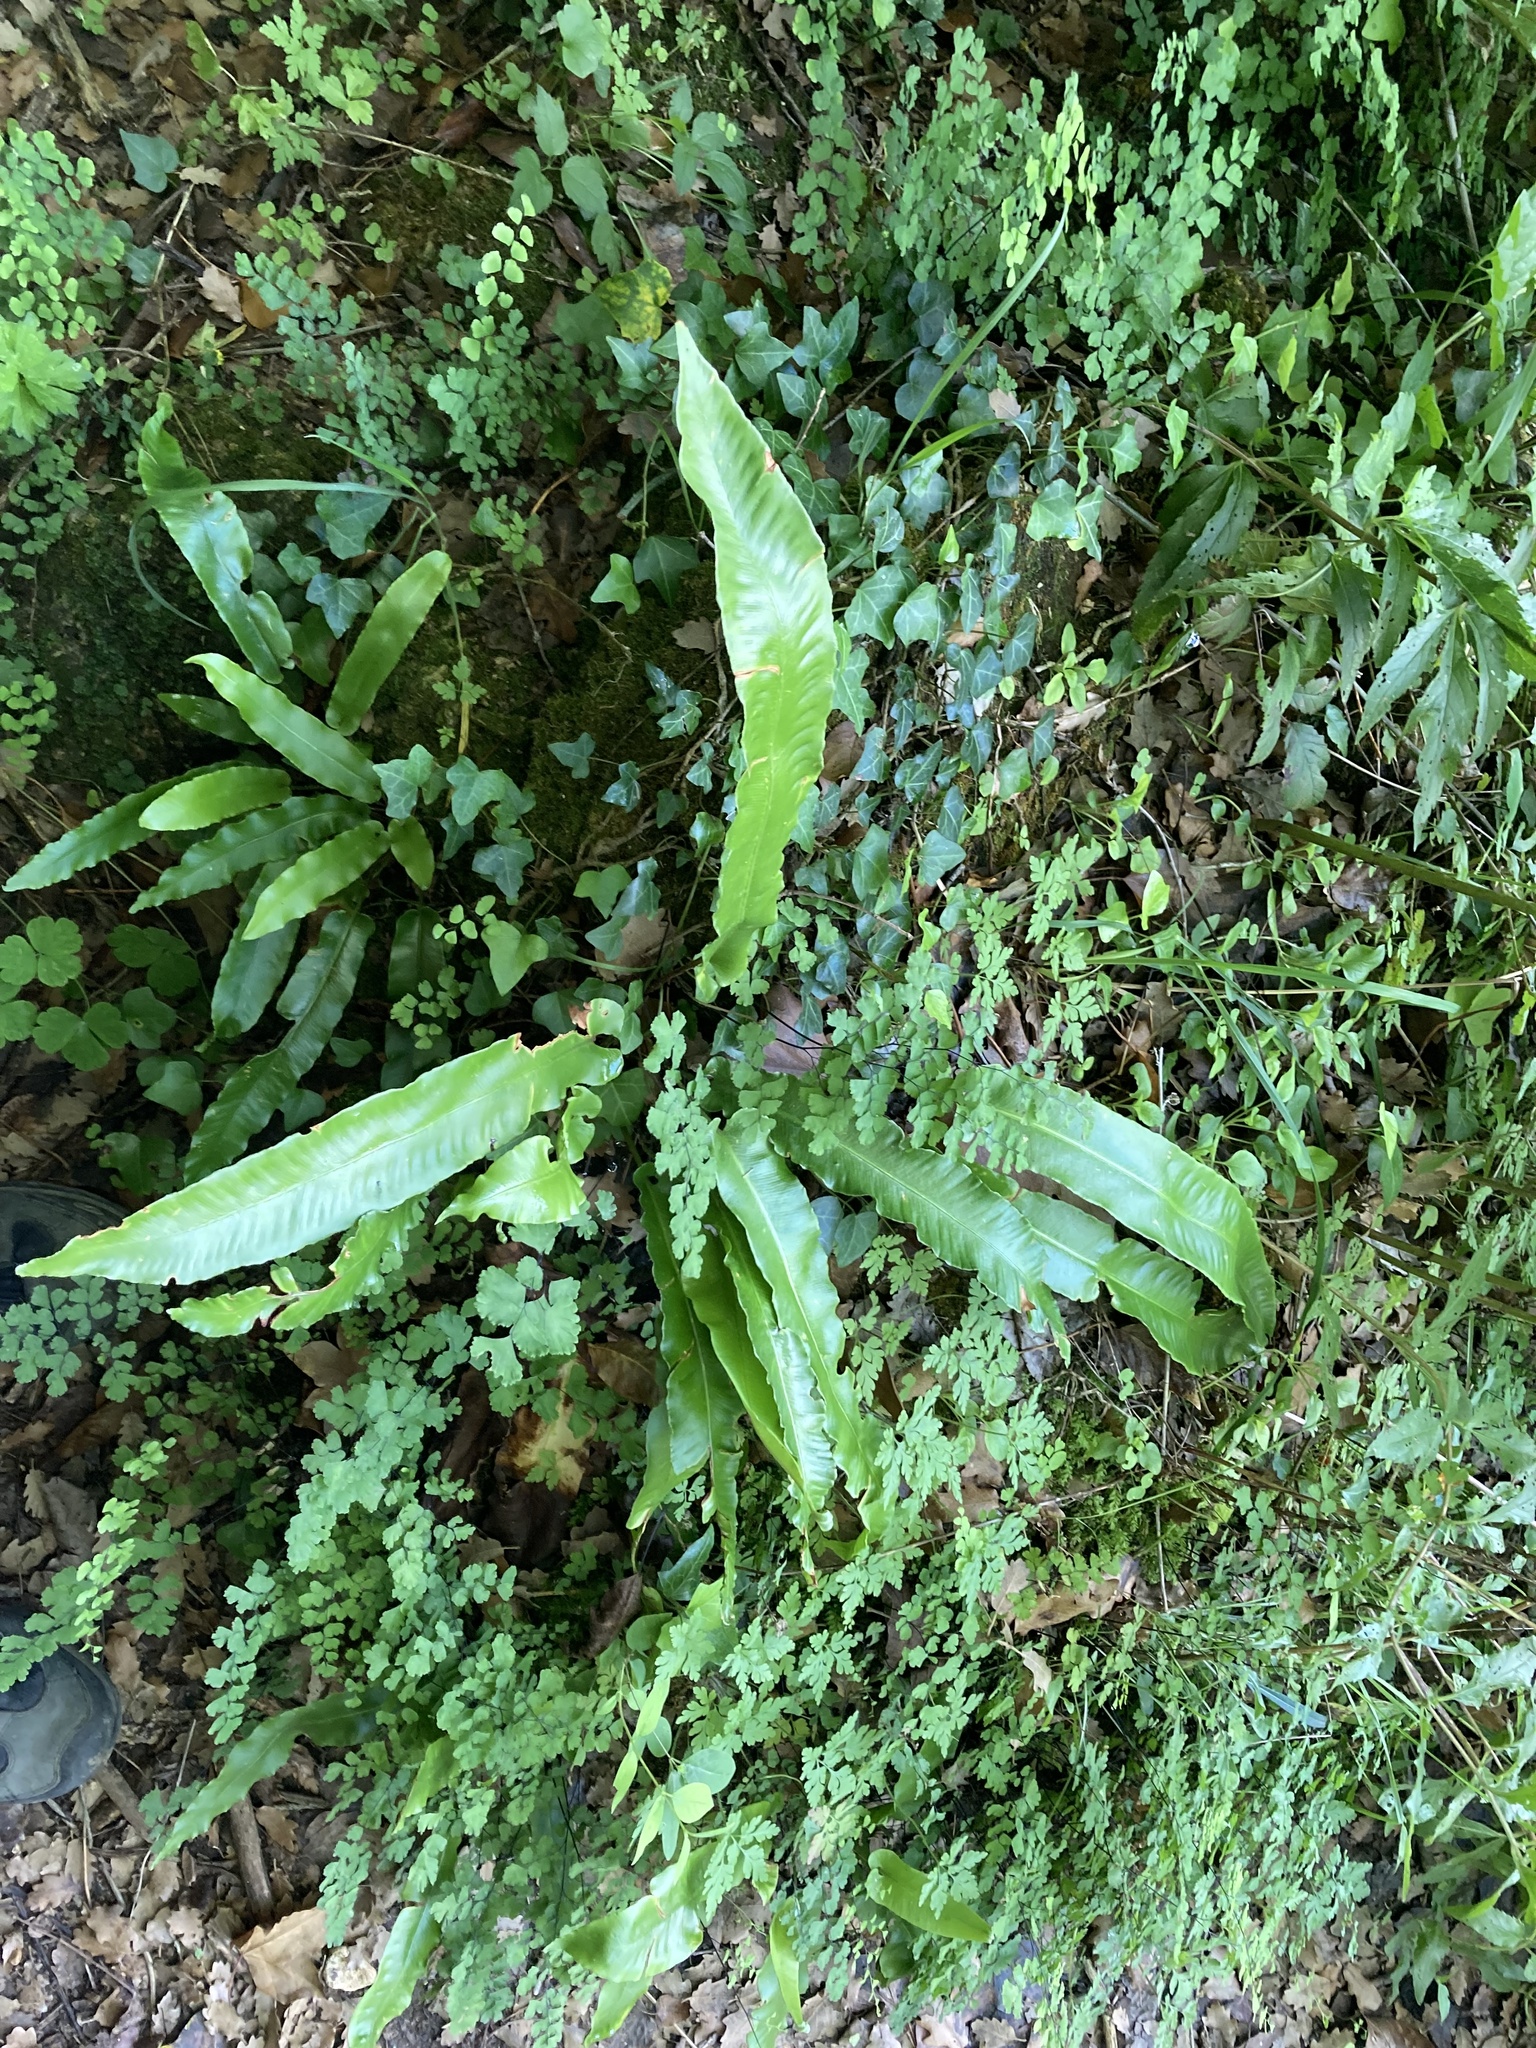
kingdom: Plantae
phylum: Tracheophyta
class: Polypodiopsida
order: Polypodiales
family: Aspleniaceae
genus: Asplenium
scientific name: Asplenium scolopendrium
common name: Hart's-tongue fern
